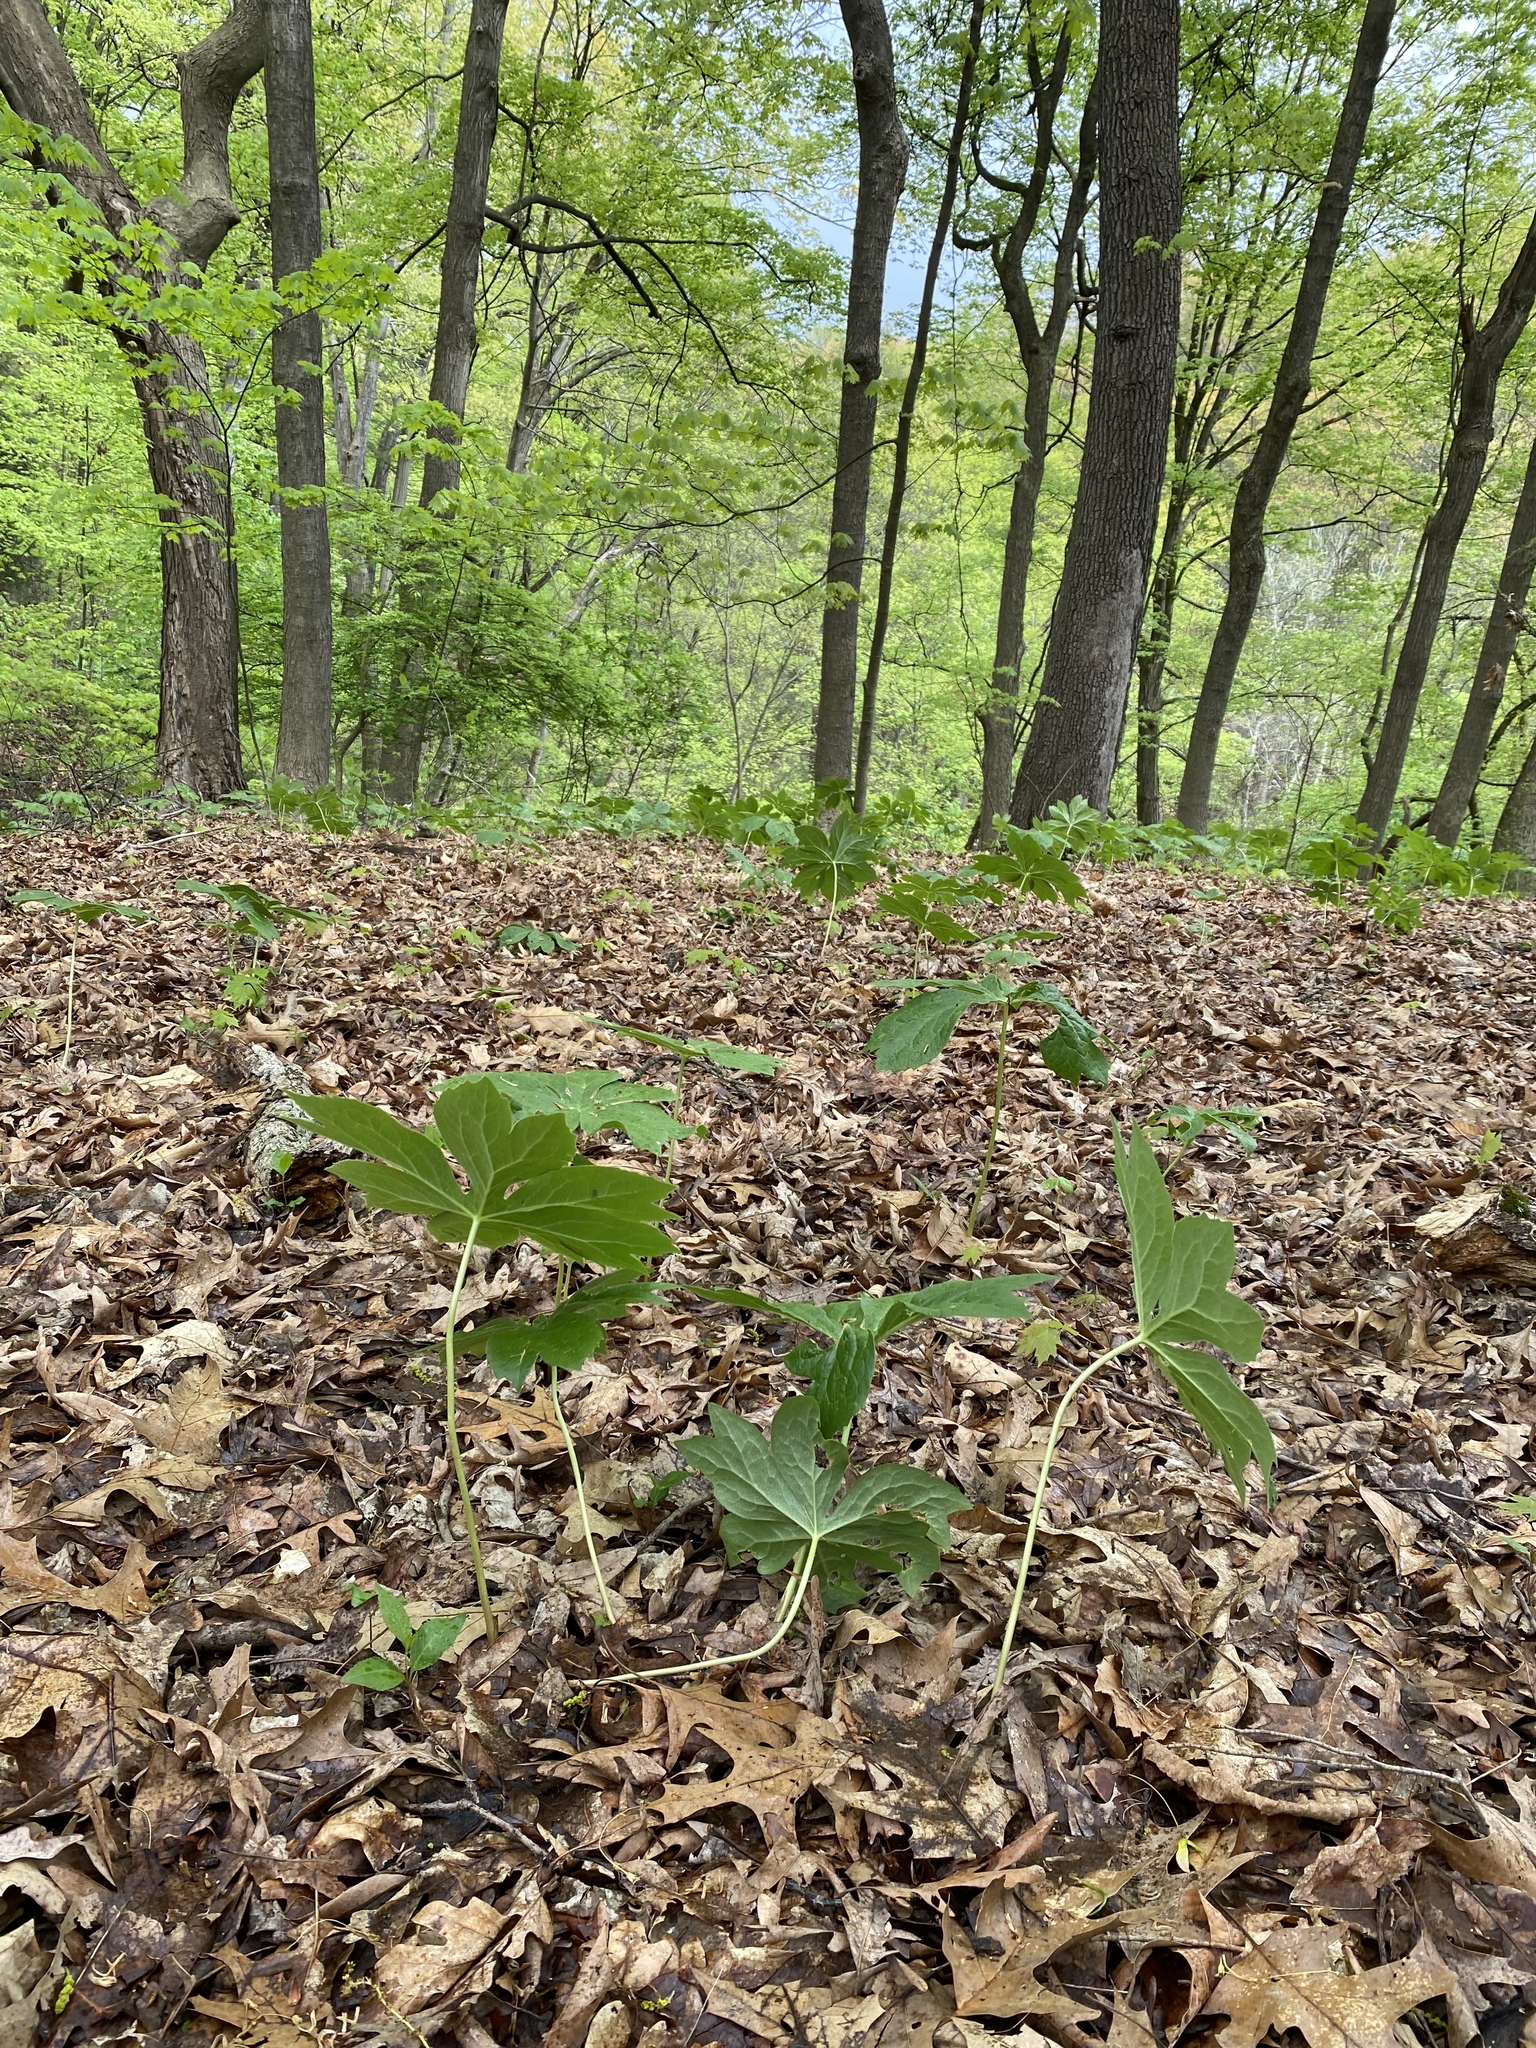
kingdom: Plantae
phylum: Tracheophyta
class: Magnoliopsida
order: Ranunculales
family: Berberidaceae
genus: Podophyllum
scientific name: Podophyllum peltatum
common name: Wild mandrake
